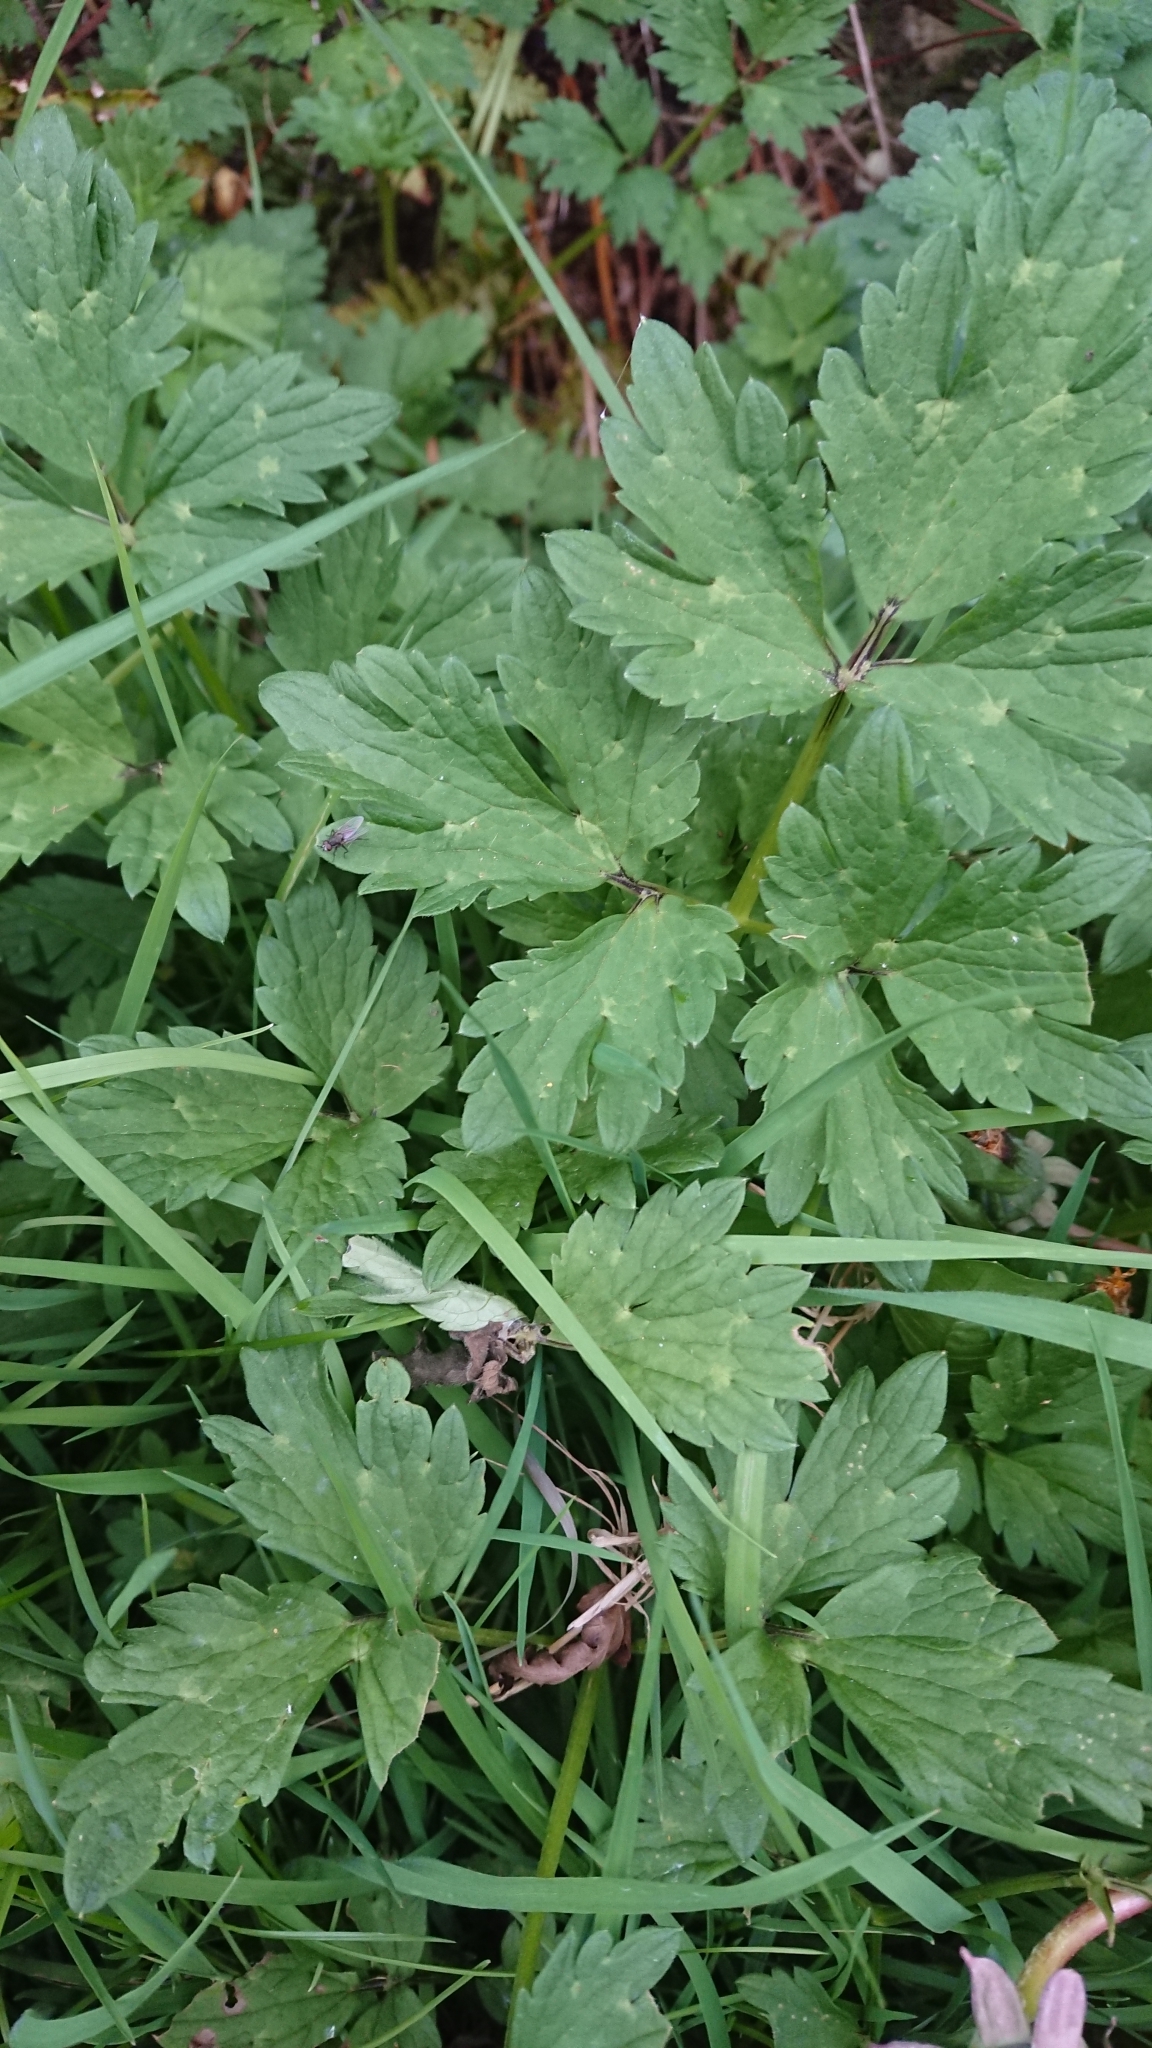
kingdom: Plantae
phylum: Tracheophyta
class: Magnoliopsida
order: Ranunculales
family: Ranunculaceae
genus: Ranunculus
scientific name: Ranunculus repens
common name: Creeping buttercup
